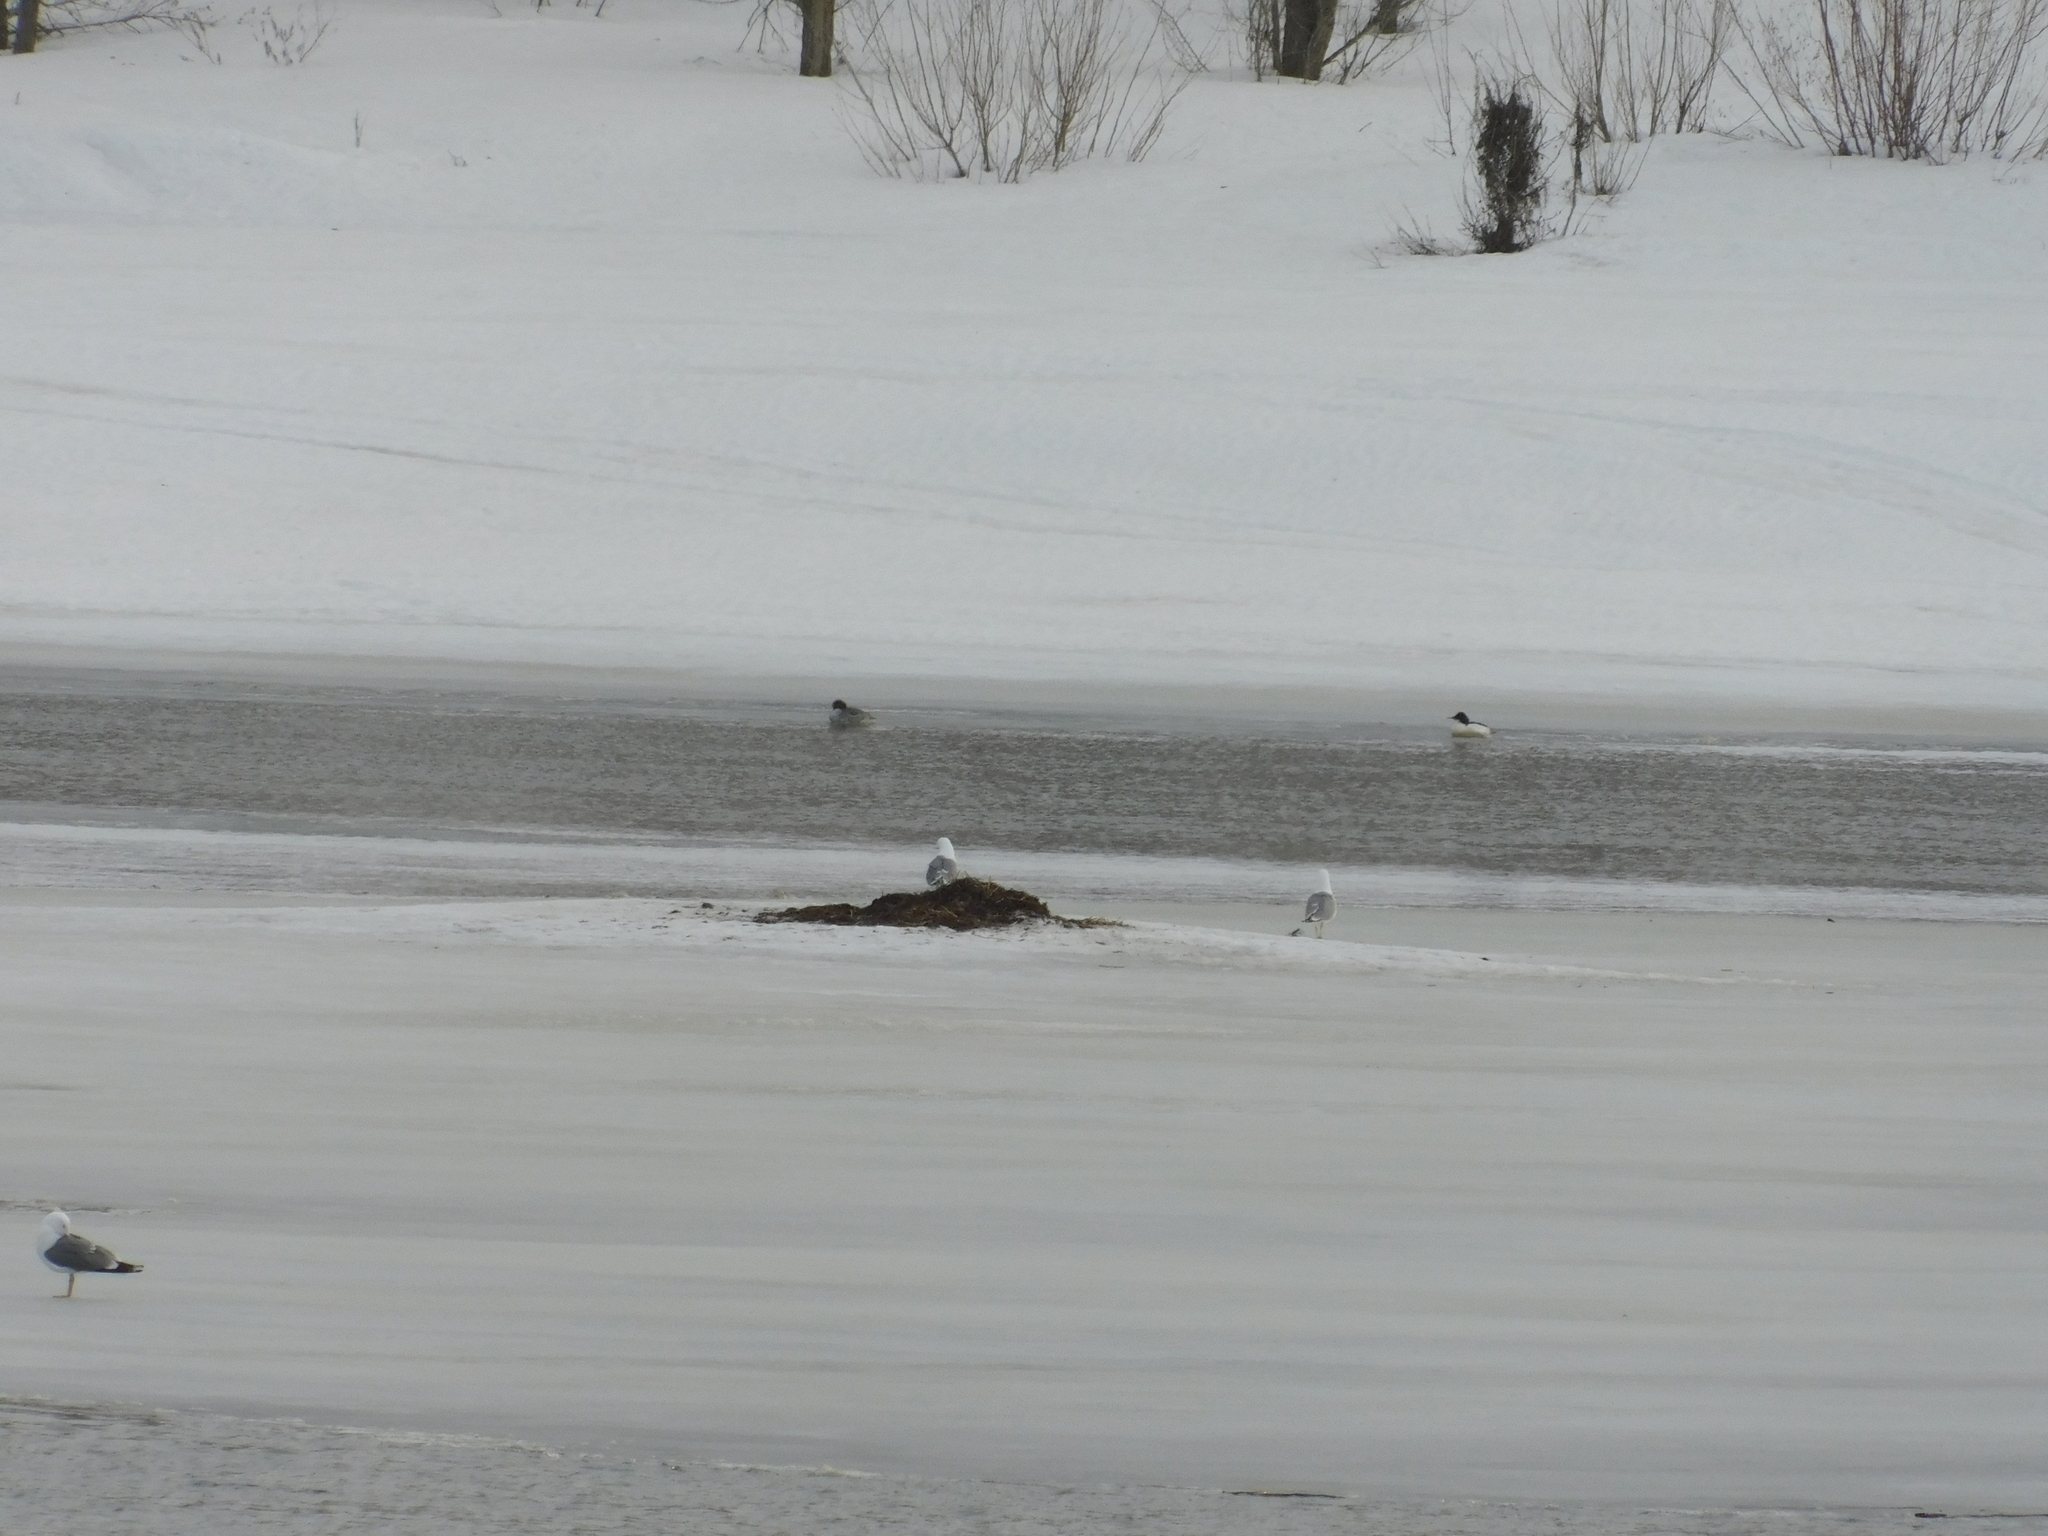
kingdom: Animalia
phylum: Chordata
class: Aves
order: Anseriformes
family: Anatidae
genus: Mergus
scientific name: Mergus merganser
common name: Common merganser
